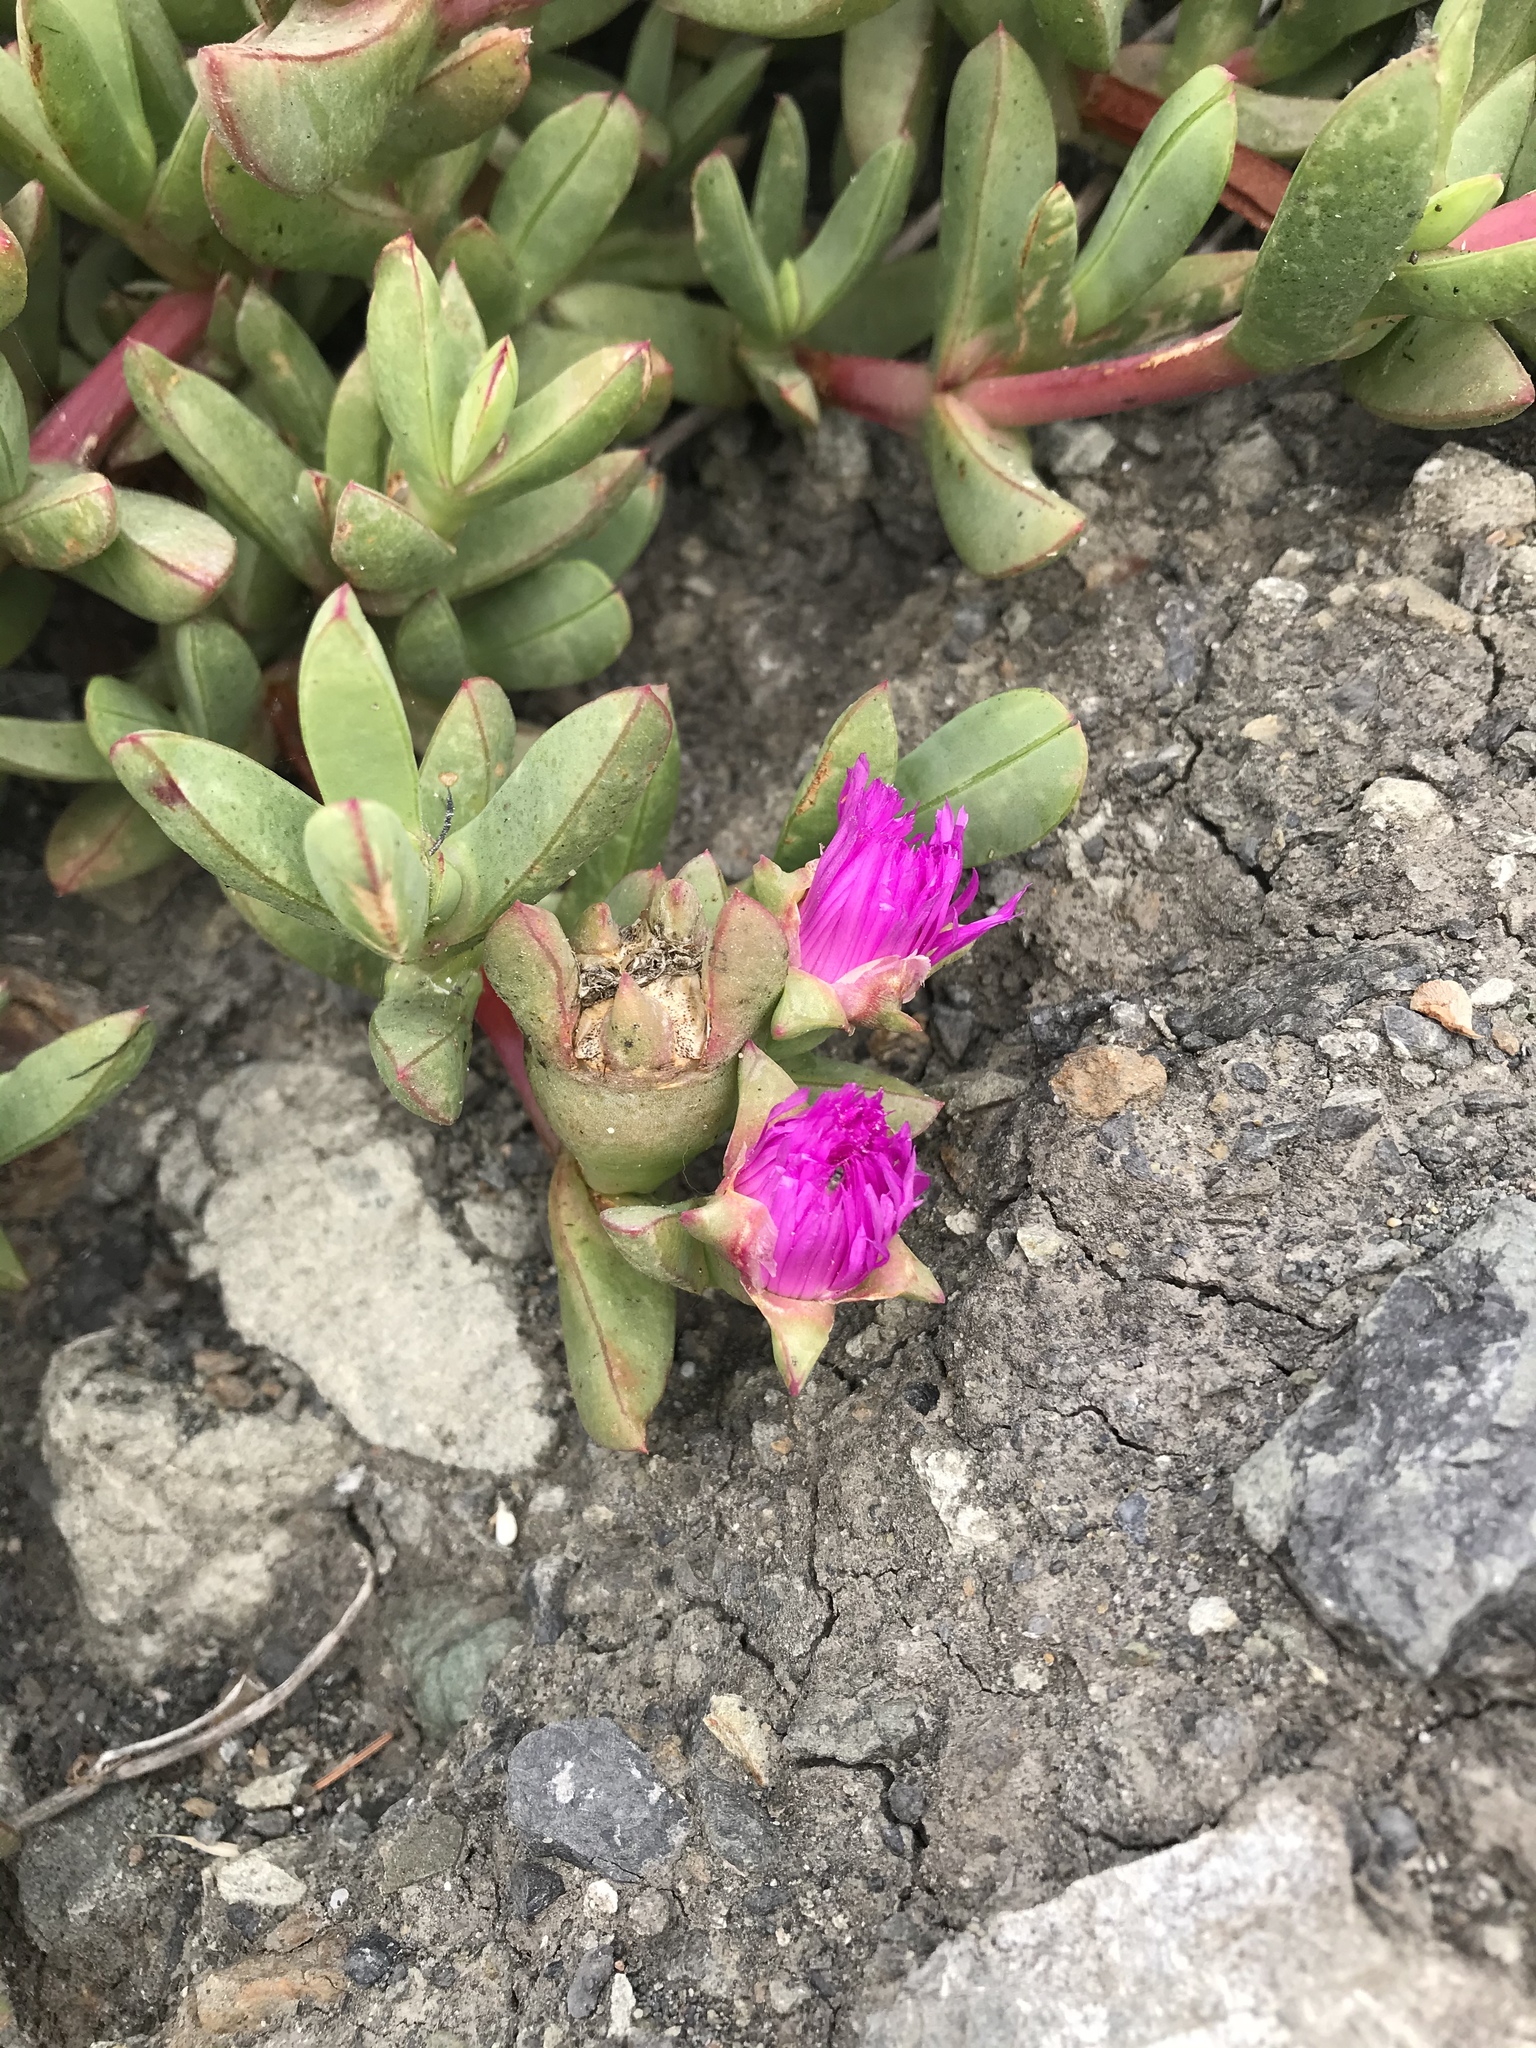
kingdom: Plantae
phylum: Tracheophyta
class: Magnoliopsida
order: Caryophyllales
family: Aizoaceae
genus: Carpobrotus
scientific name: Carpobrotus chilensis
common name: Sea fig
